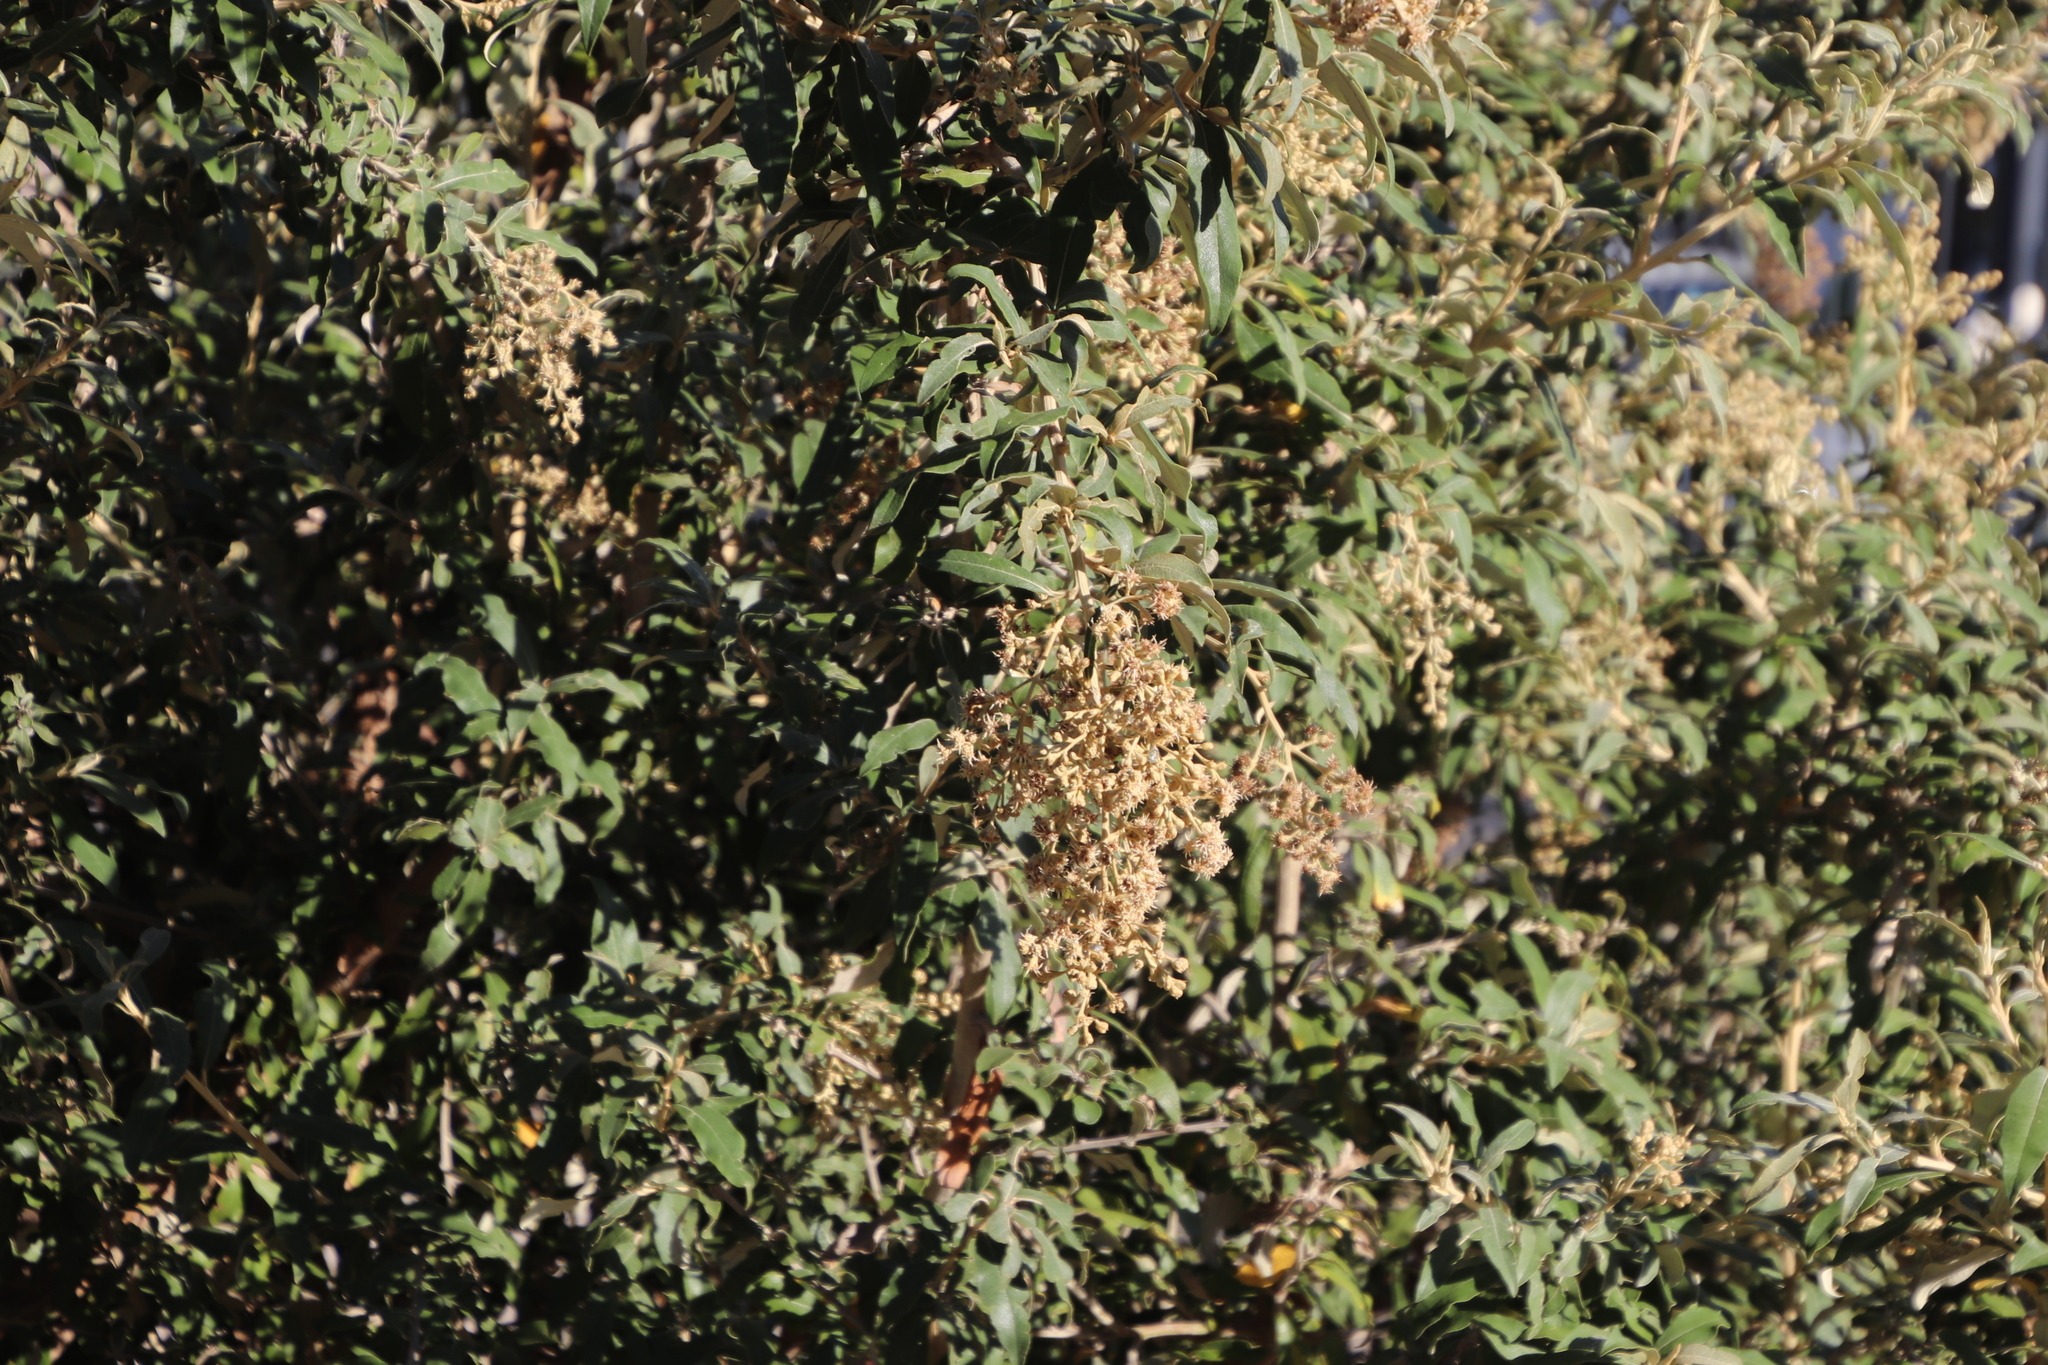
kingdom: Plantae
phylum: Tracheophyta
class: Magnoliopsida
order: Asterales
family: Asteraceae
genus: Tarchonanthus
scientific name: Tarchonanthus littoralis
